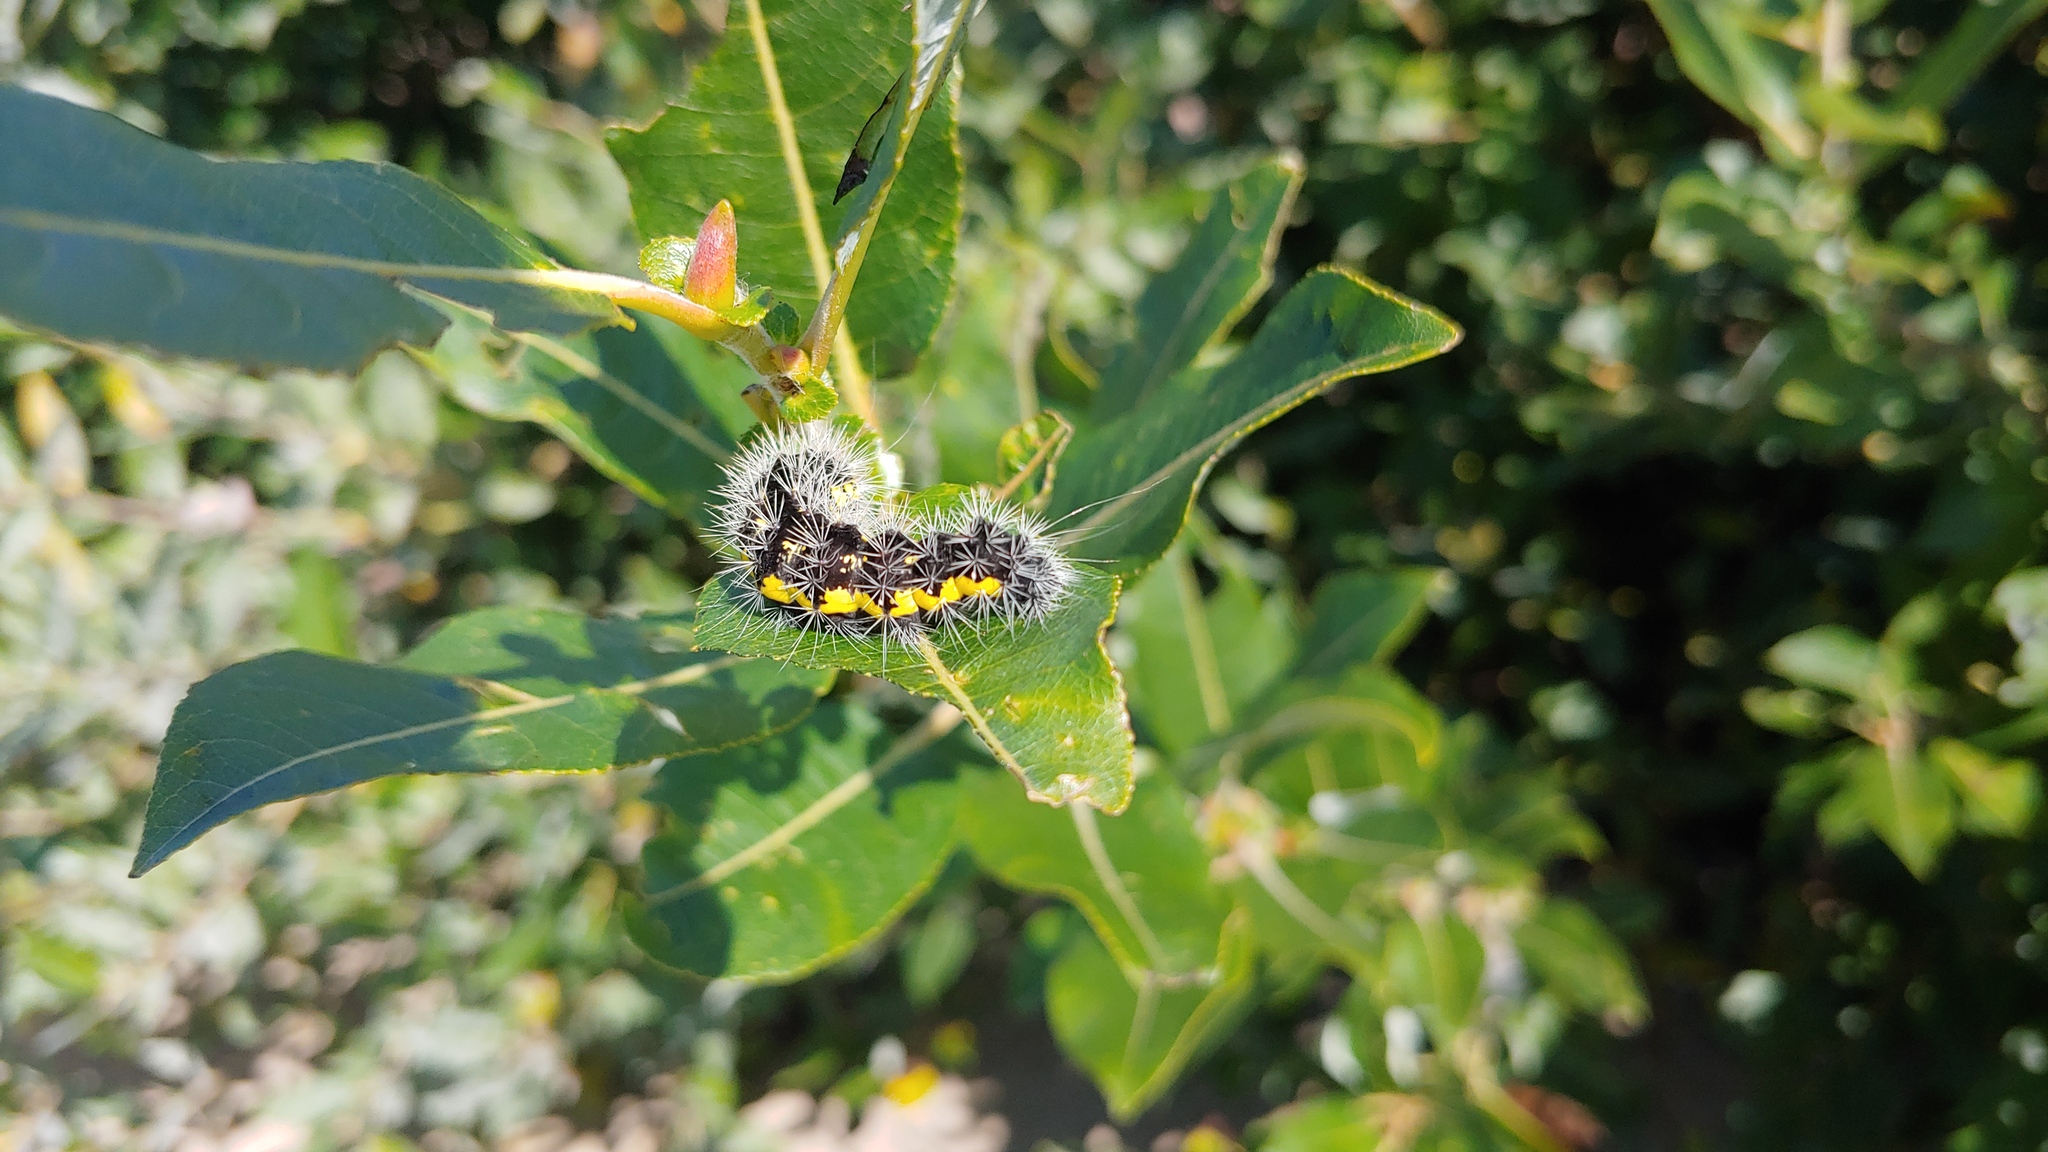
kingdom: Animalia
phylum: Arthropoda
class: Insecta
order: Lepidoptera
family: Noctuidae
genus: Acronicta
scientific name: Acronicta oblinita
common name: Smeared dagger
